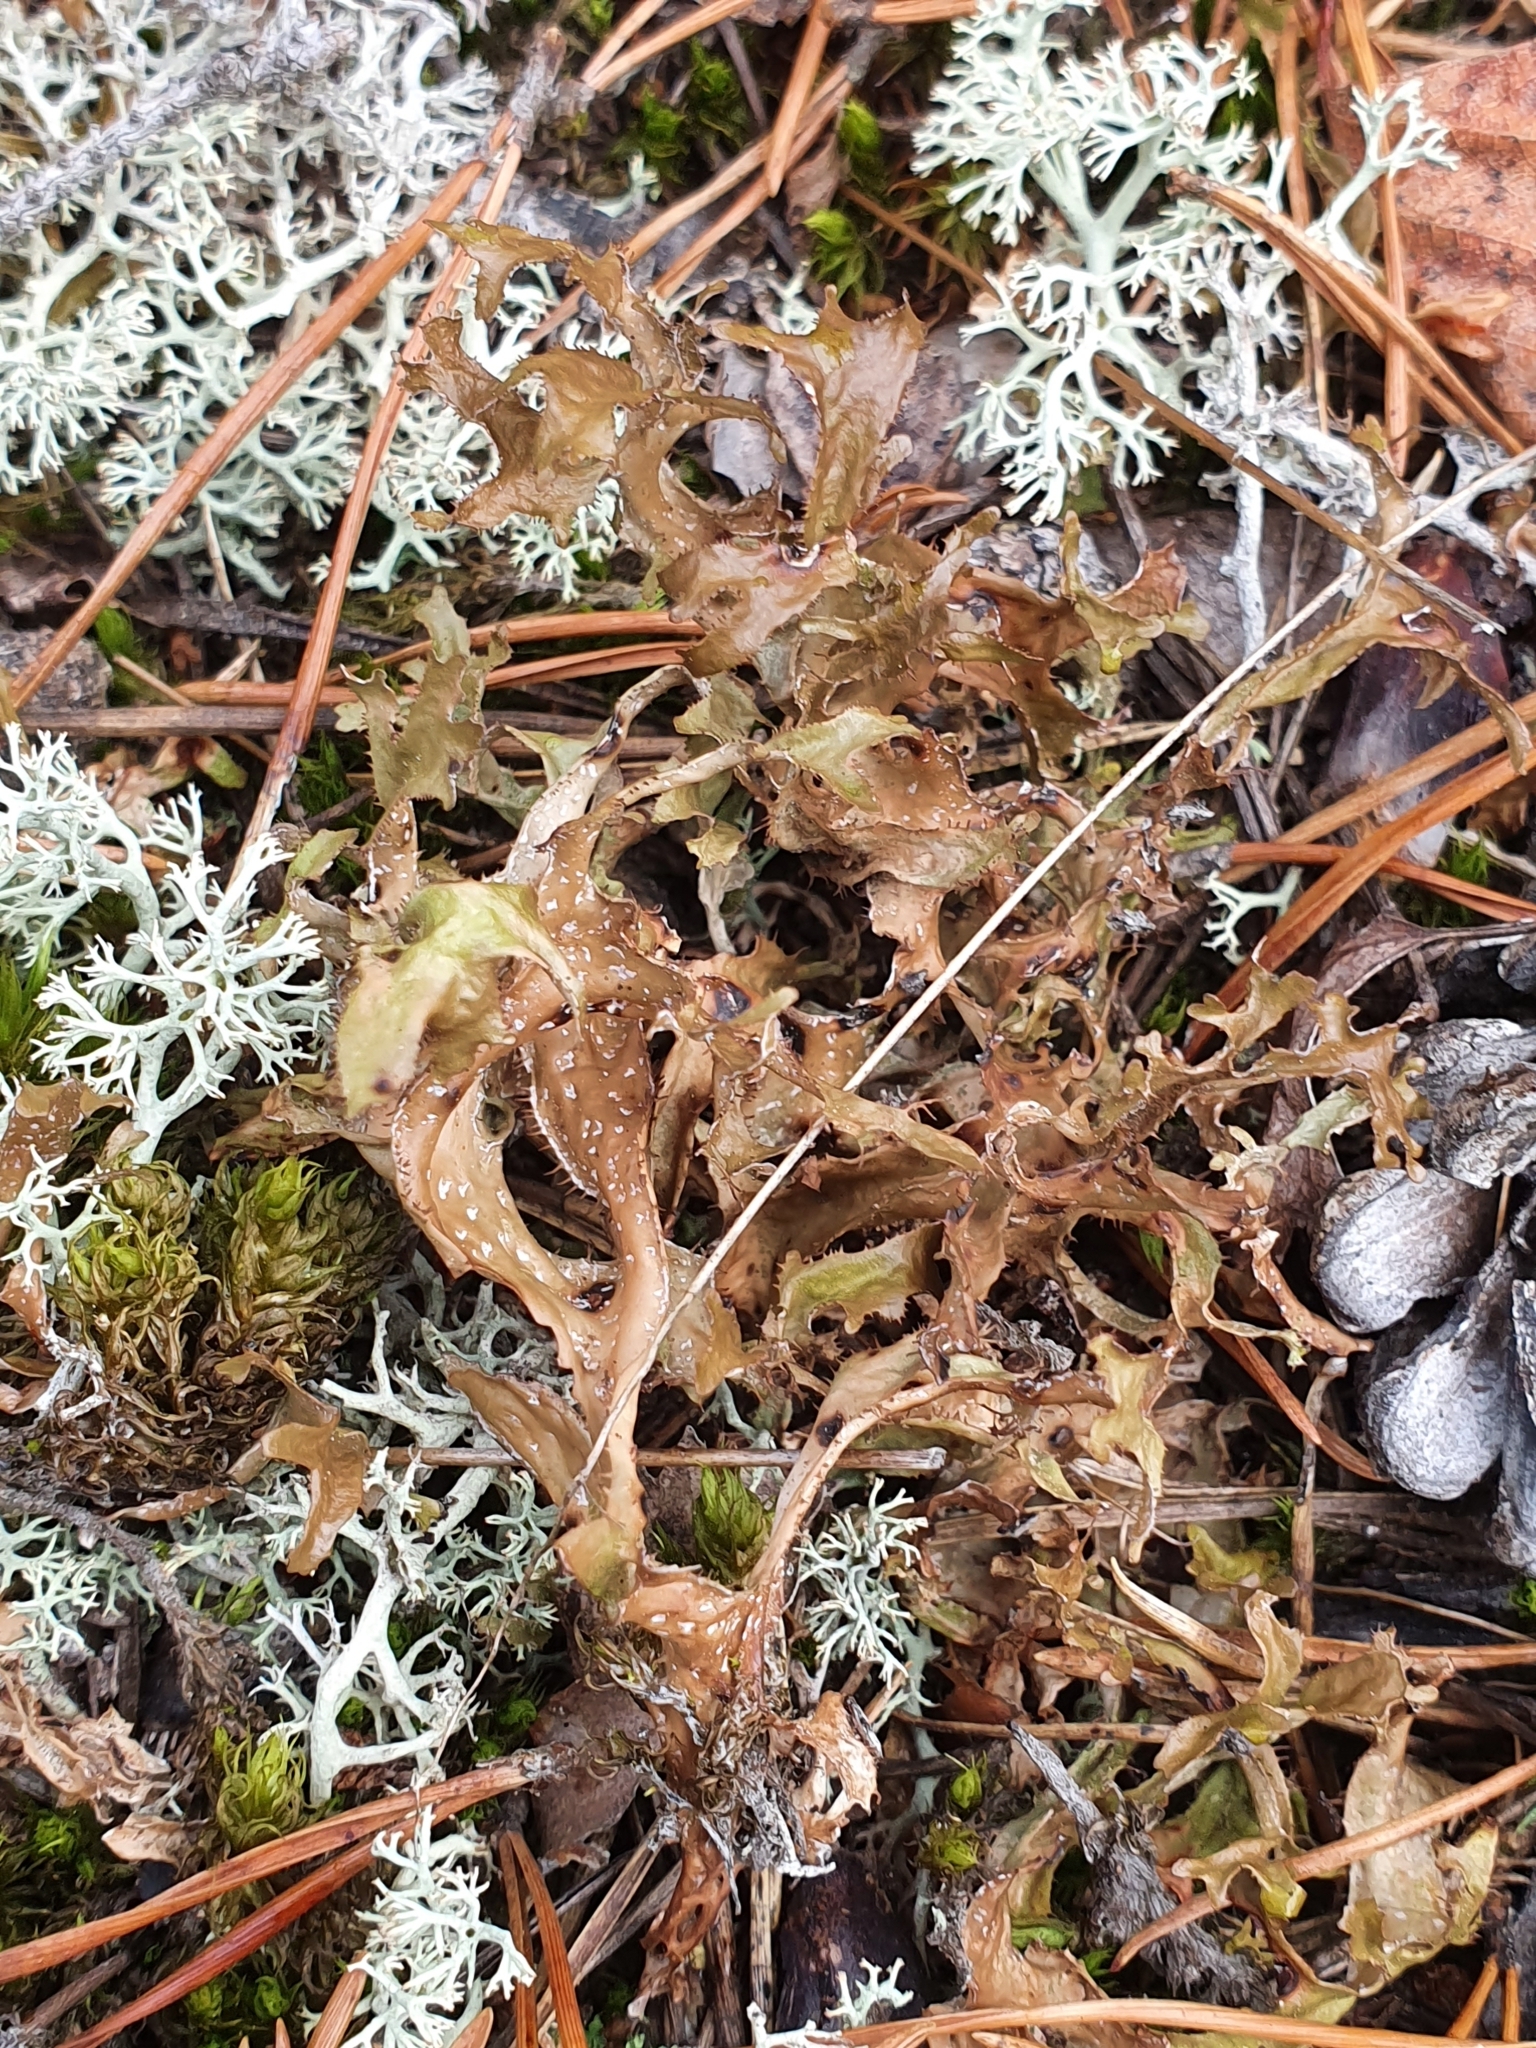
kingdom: Fungi
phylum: Ascomycota
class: Lecanoromycetes
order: Lecanorales
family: Parmeliaceae
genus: Cetraria
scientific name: Cetraria islandica
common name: Iceland lichen
